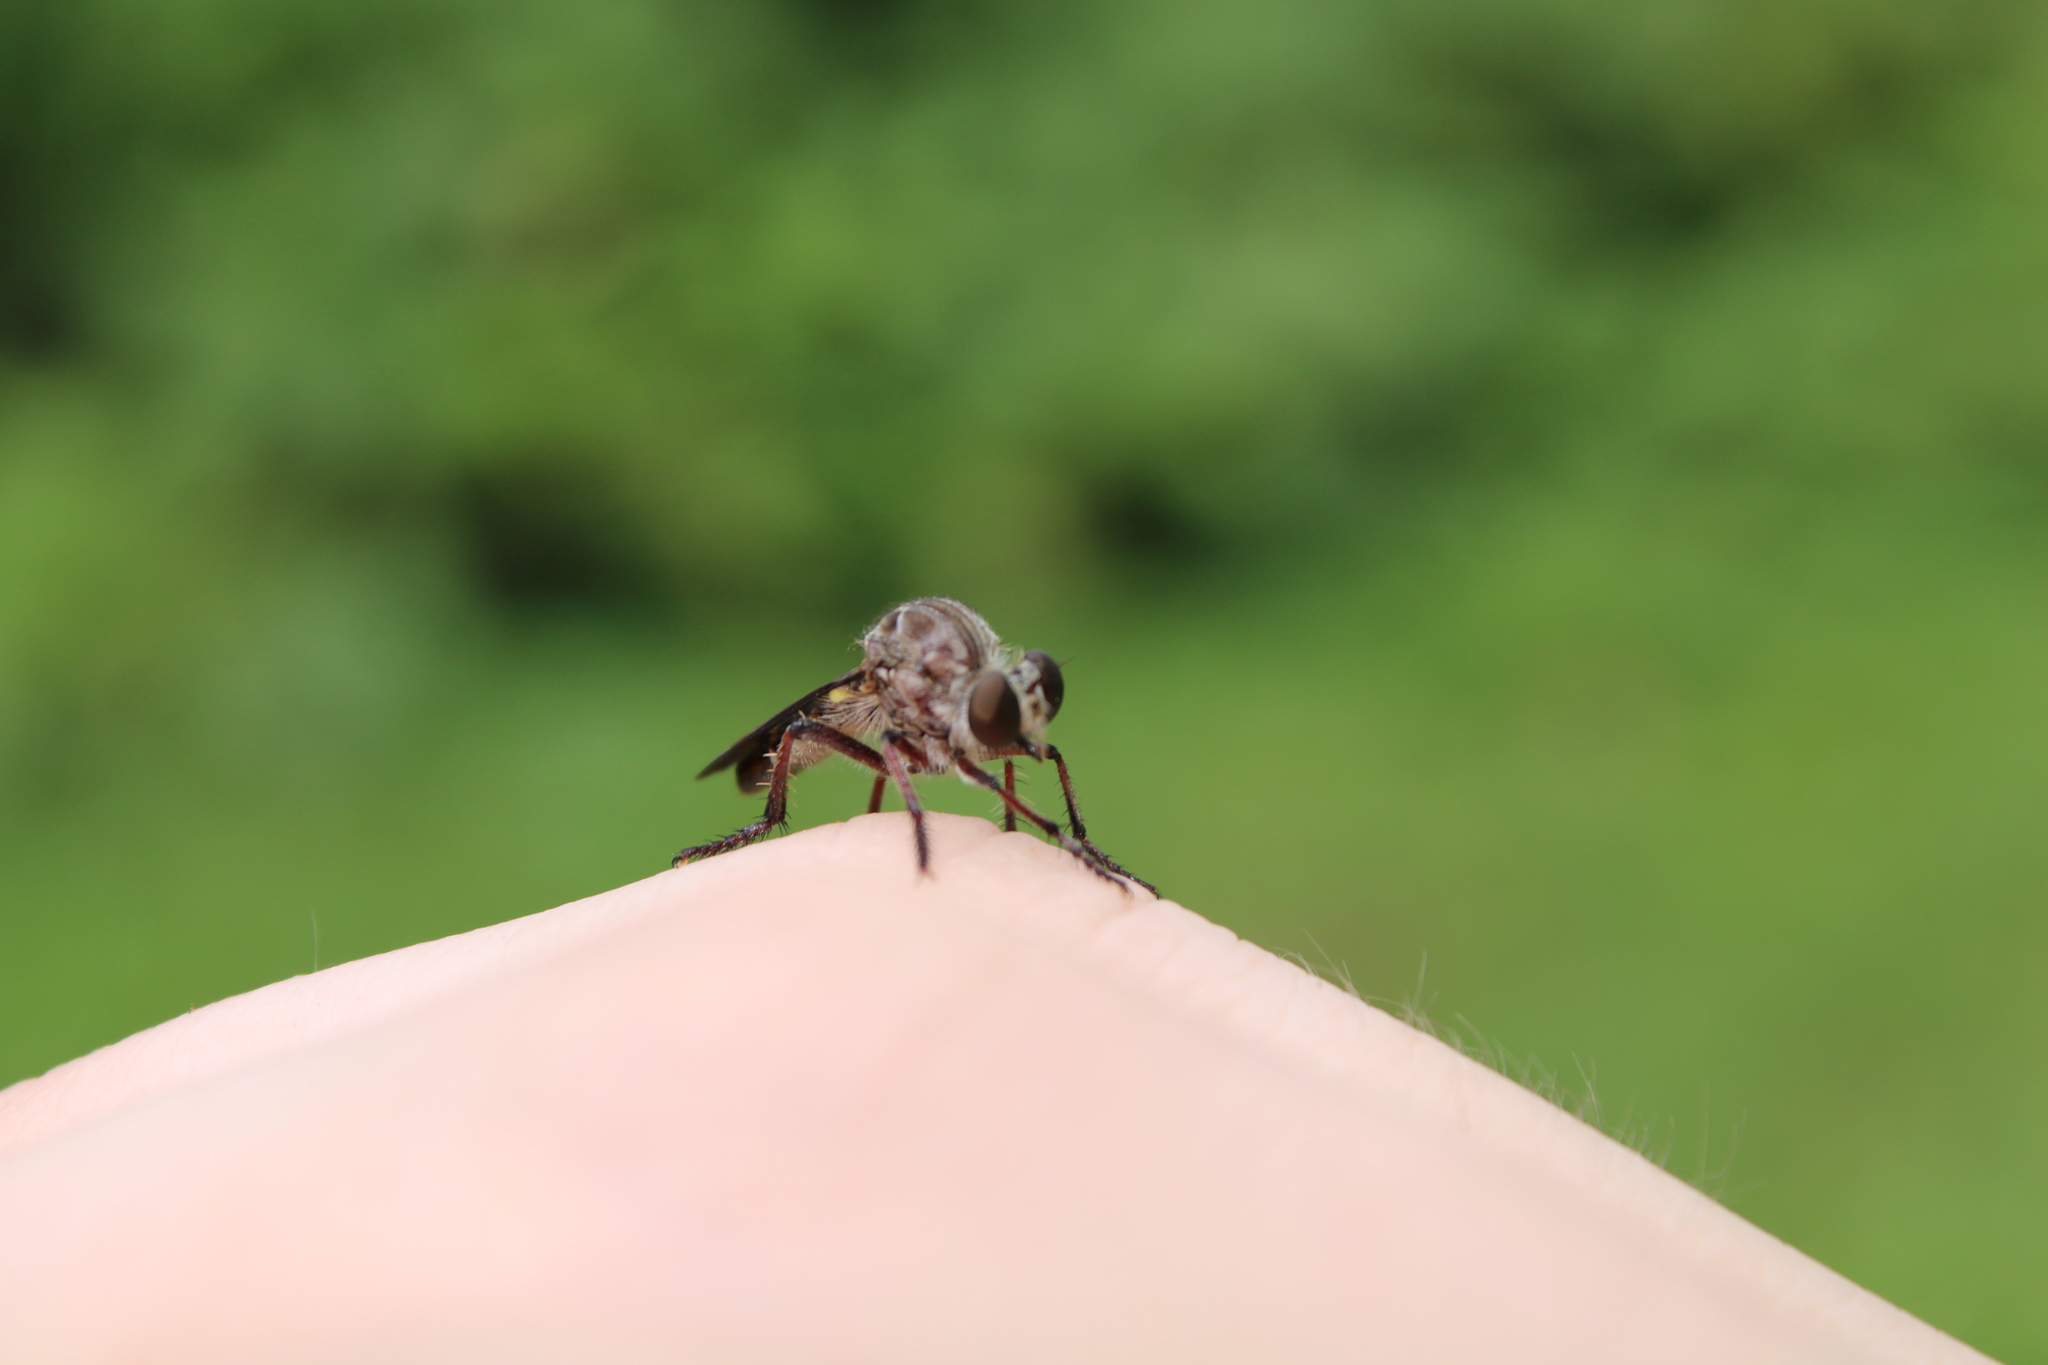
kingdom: Animalia
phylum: Arthropoda
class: Insecta
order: Diptera
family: Asilidae
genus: Heteropogon
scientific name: Heteropogon macerinus
